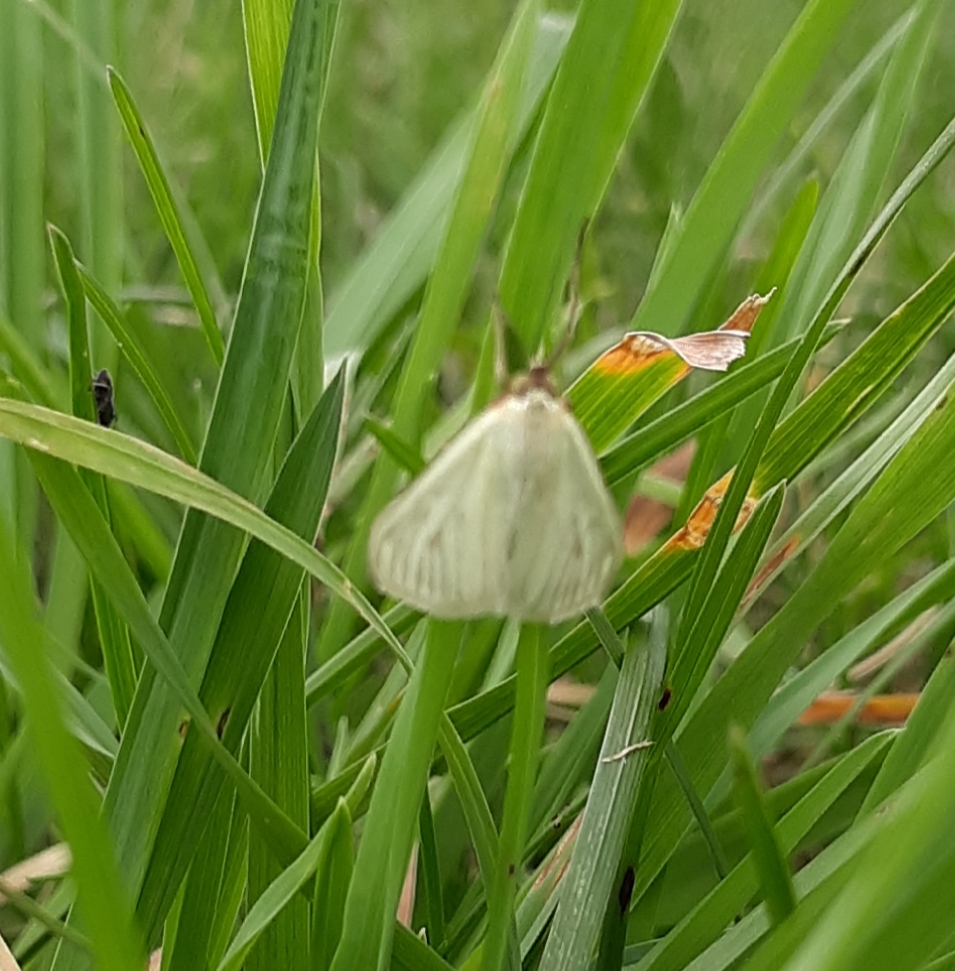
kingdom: Animalia
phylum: Arthropoda
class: Insecta
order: Lepidoptera
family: Crambidae
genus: Sitochroa
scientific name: Sitochroa palealis
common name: Greenish-yellow sitochroa moth
